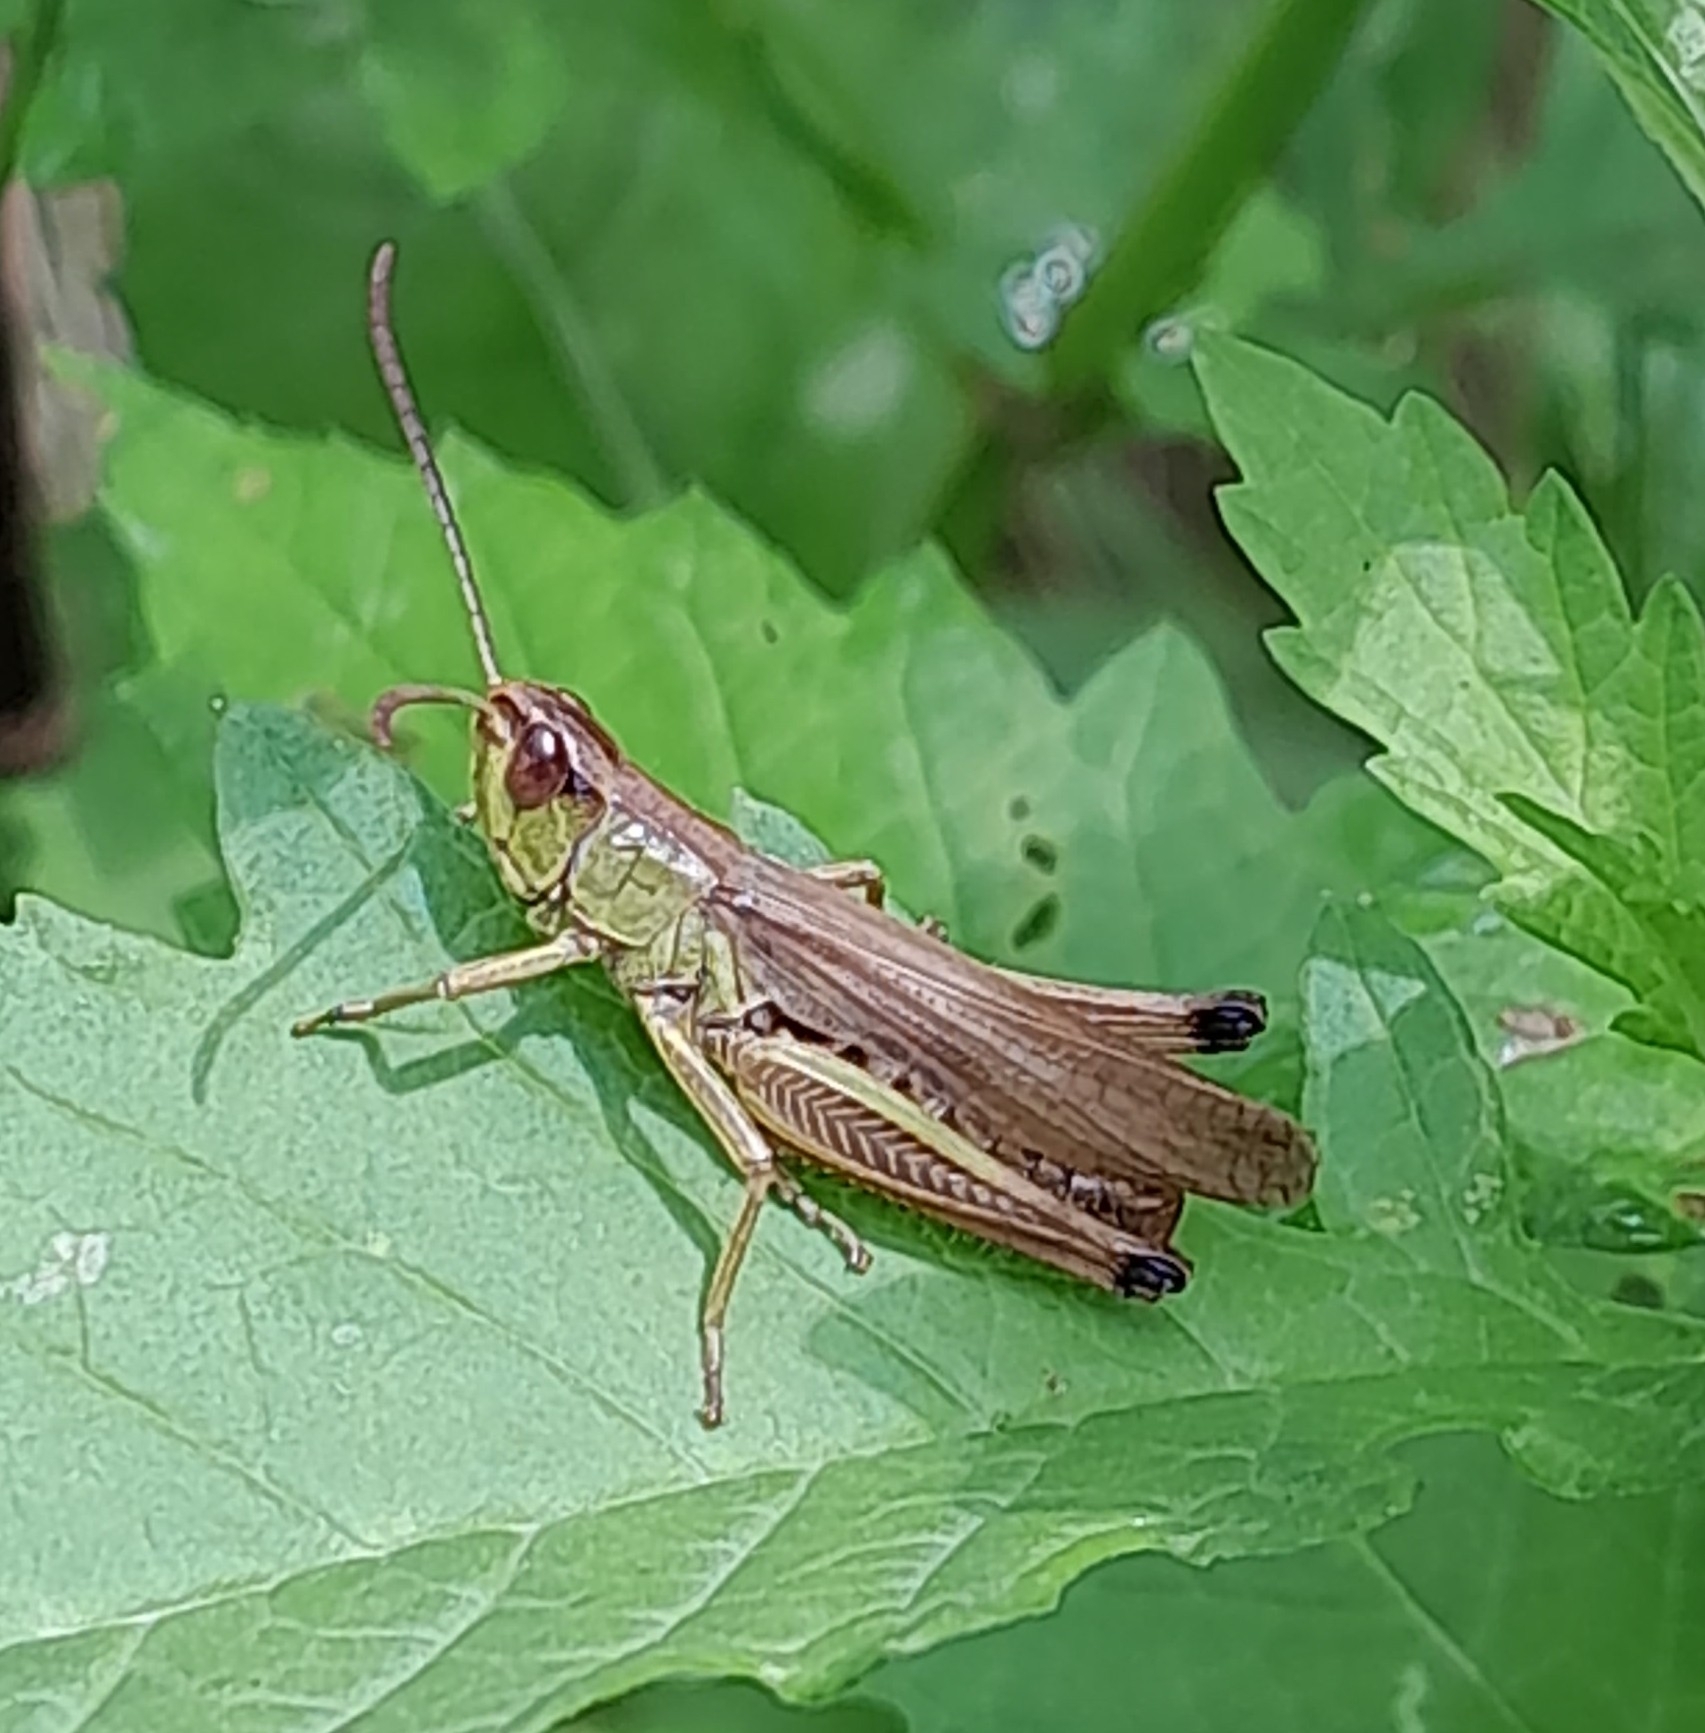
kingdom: Animalia
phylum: Arthropoda
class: Insecta
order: Orthoptera
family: Acrididae
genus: Pseudochorthippus
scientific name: Pseudochorthippus parallelus
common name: Meadow grasshopper
